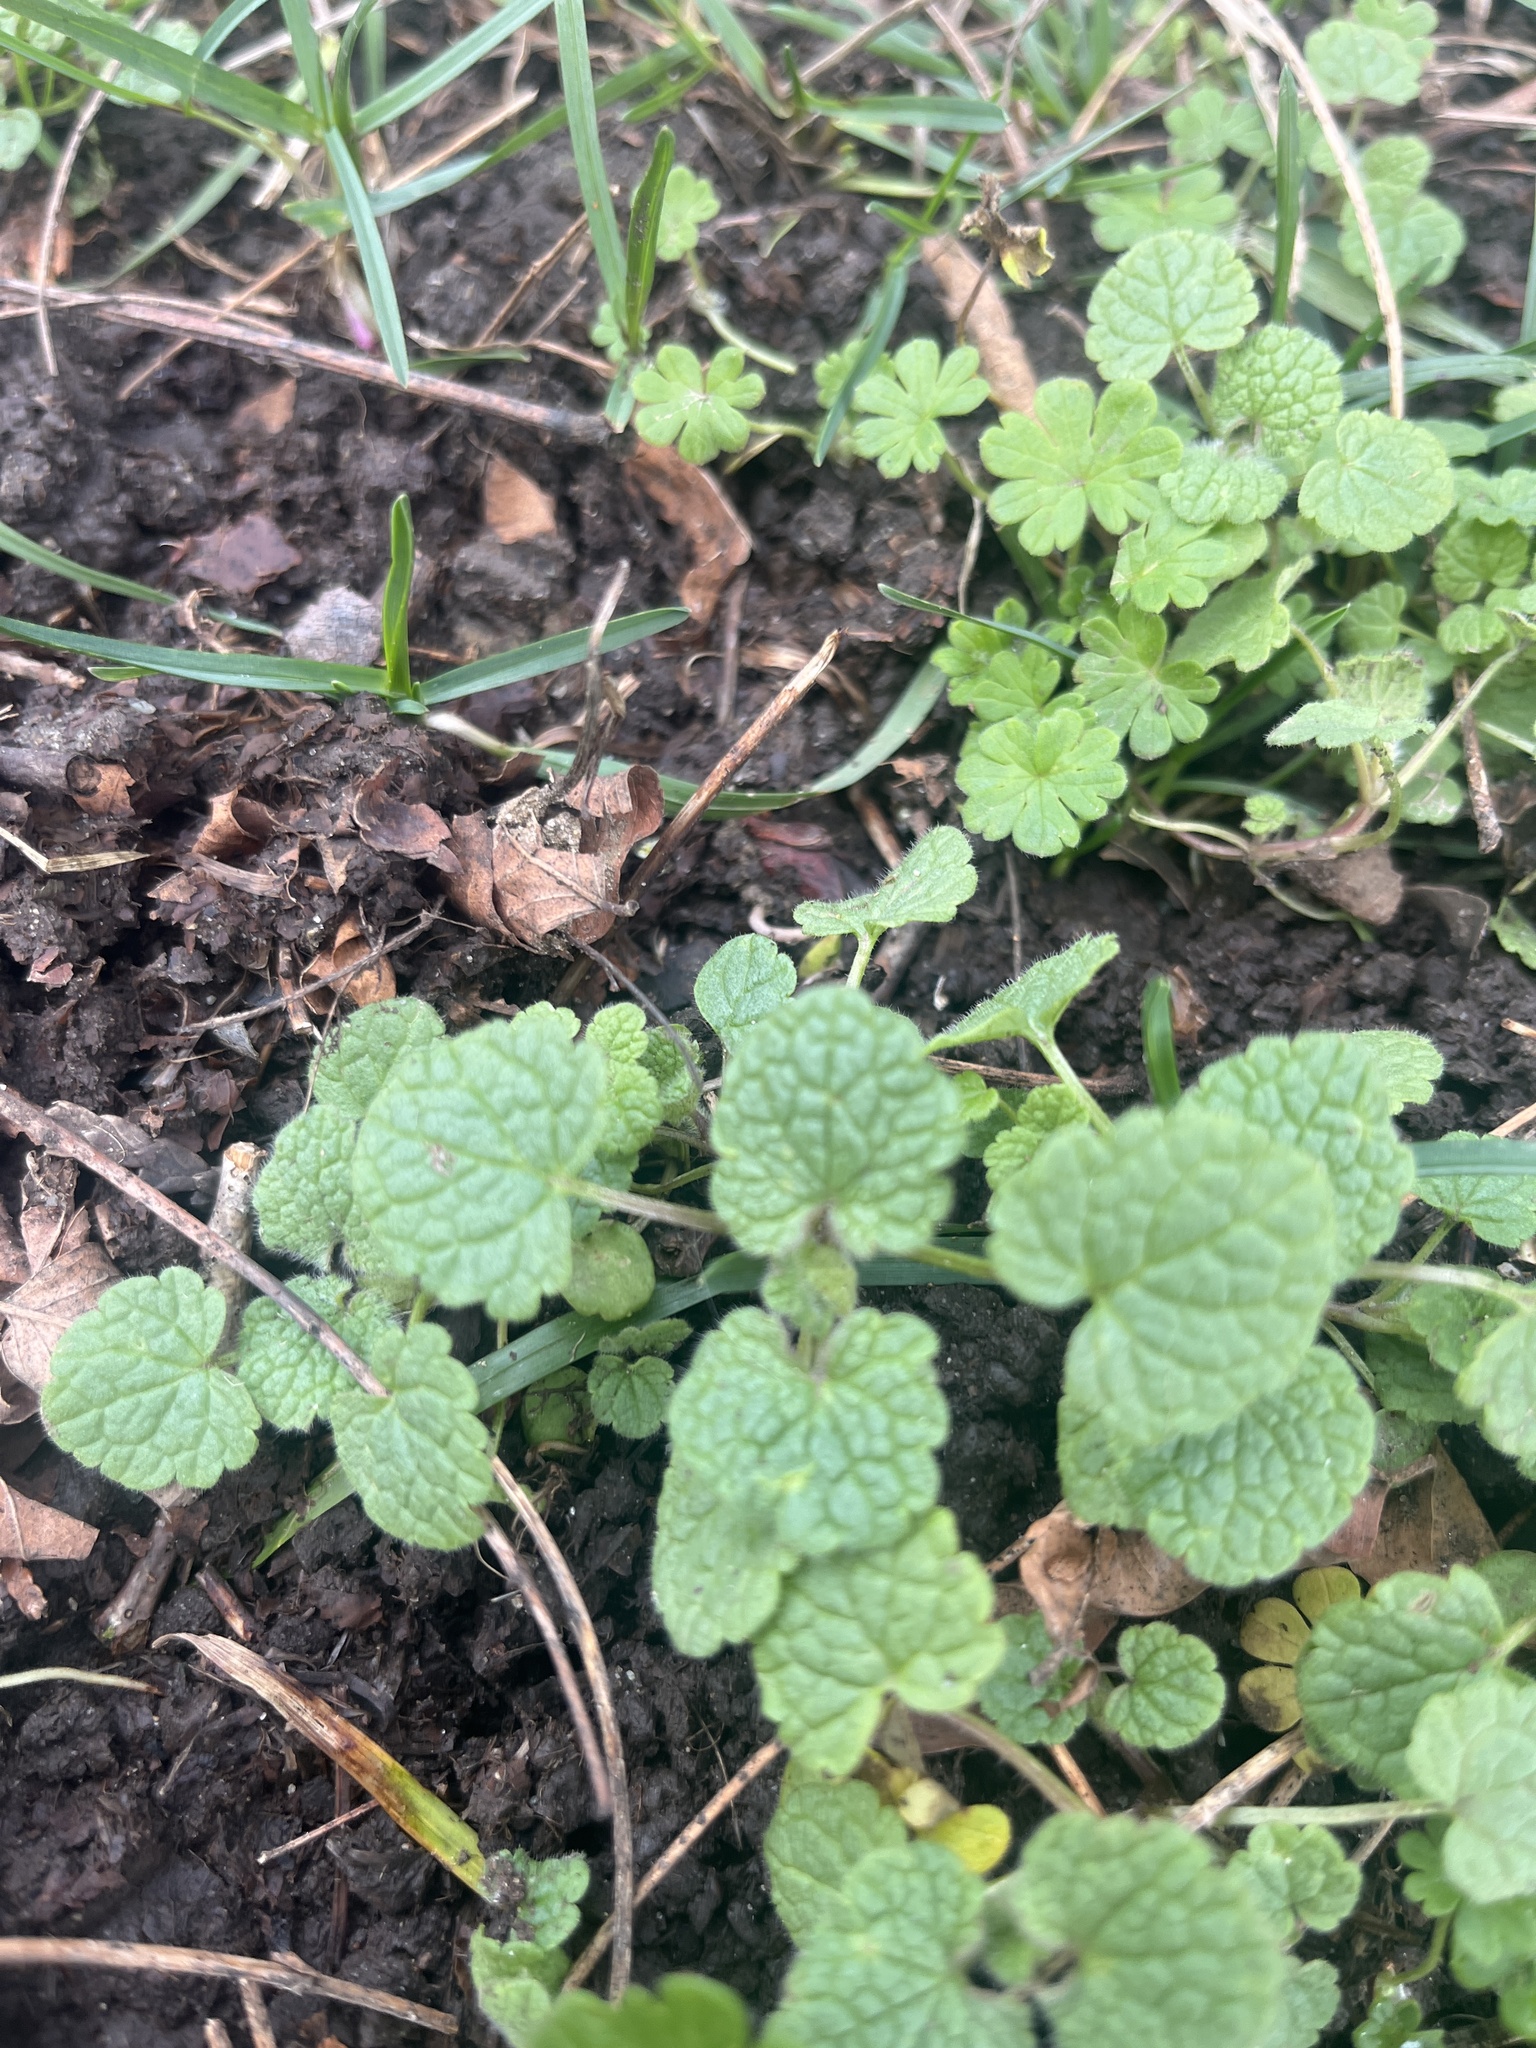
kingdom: Plantae
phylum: Tracheophyta
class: Magnoliopsida
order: Lamiales
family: Lamiaceae
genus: Lamium
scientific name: Lamium purpureum
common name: Red dead-nettle
